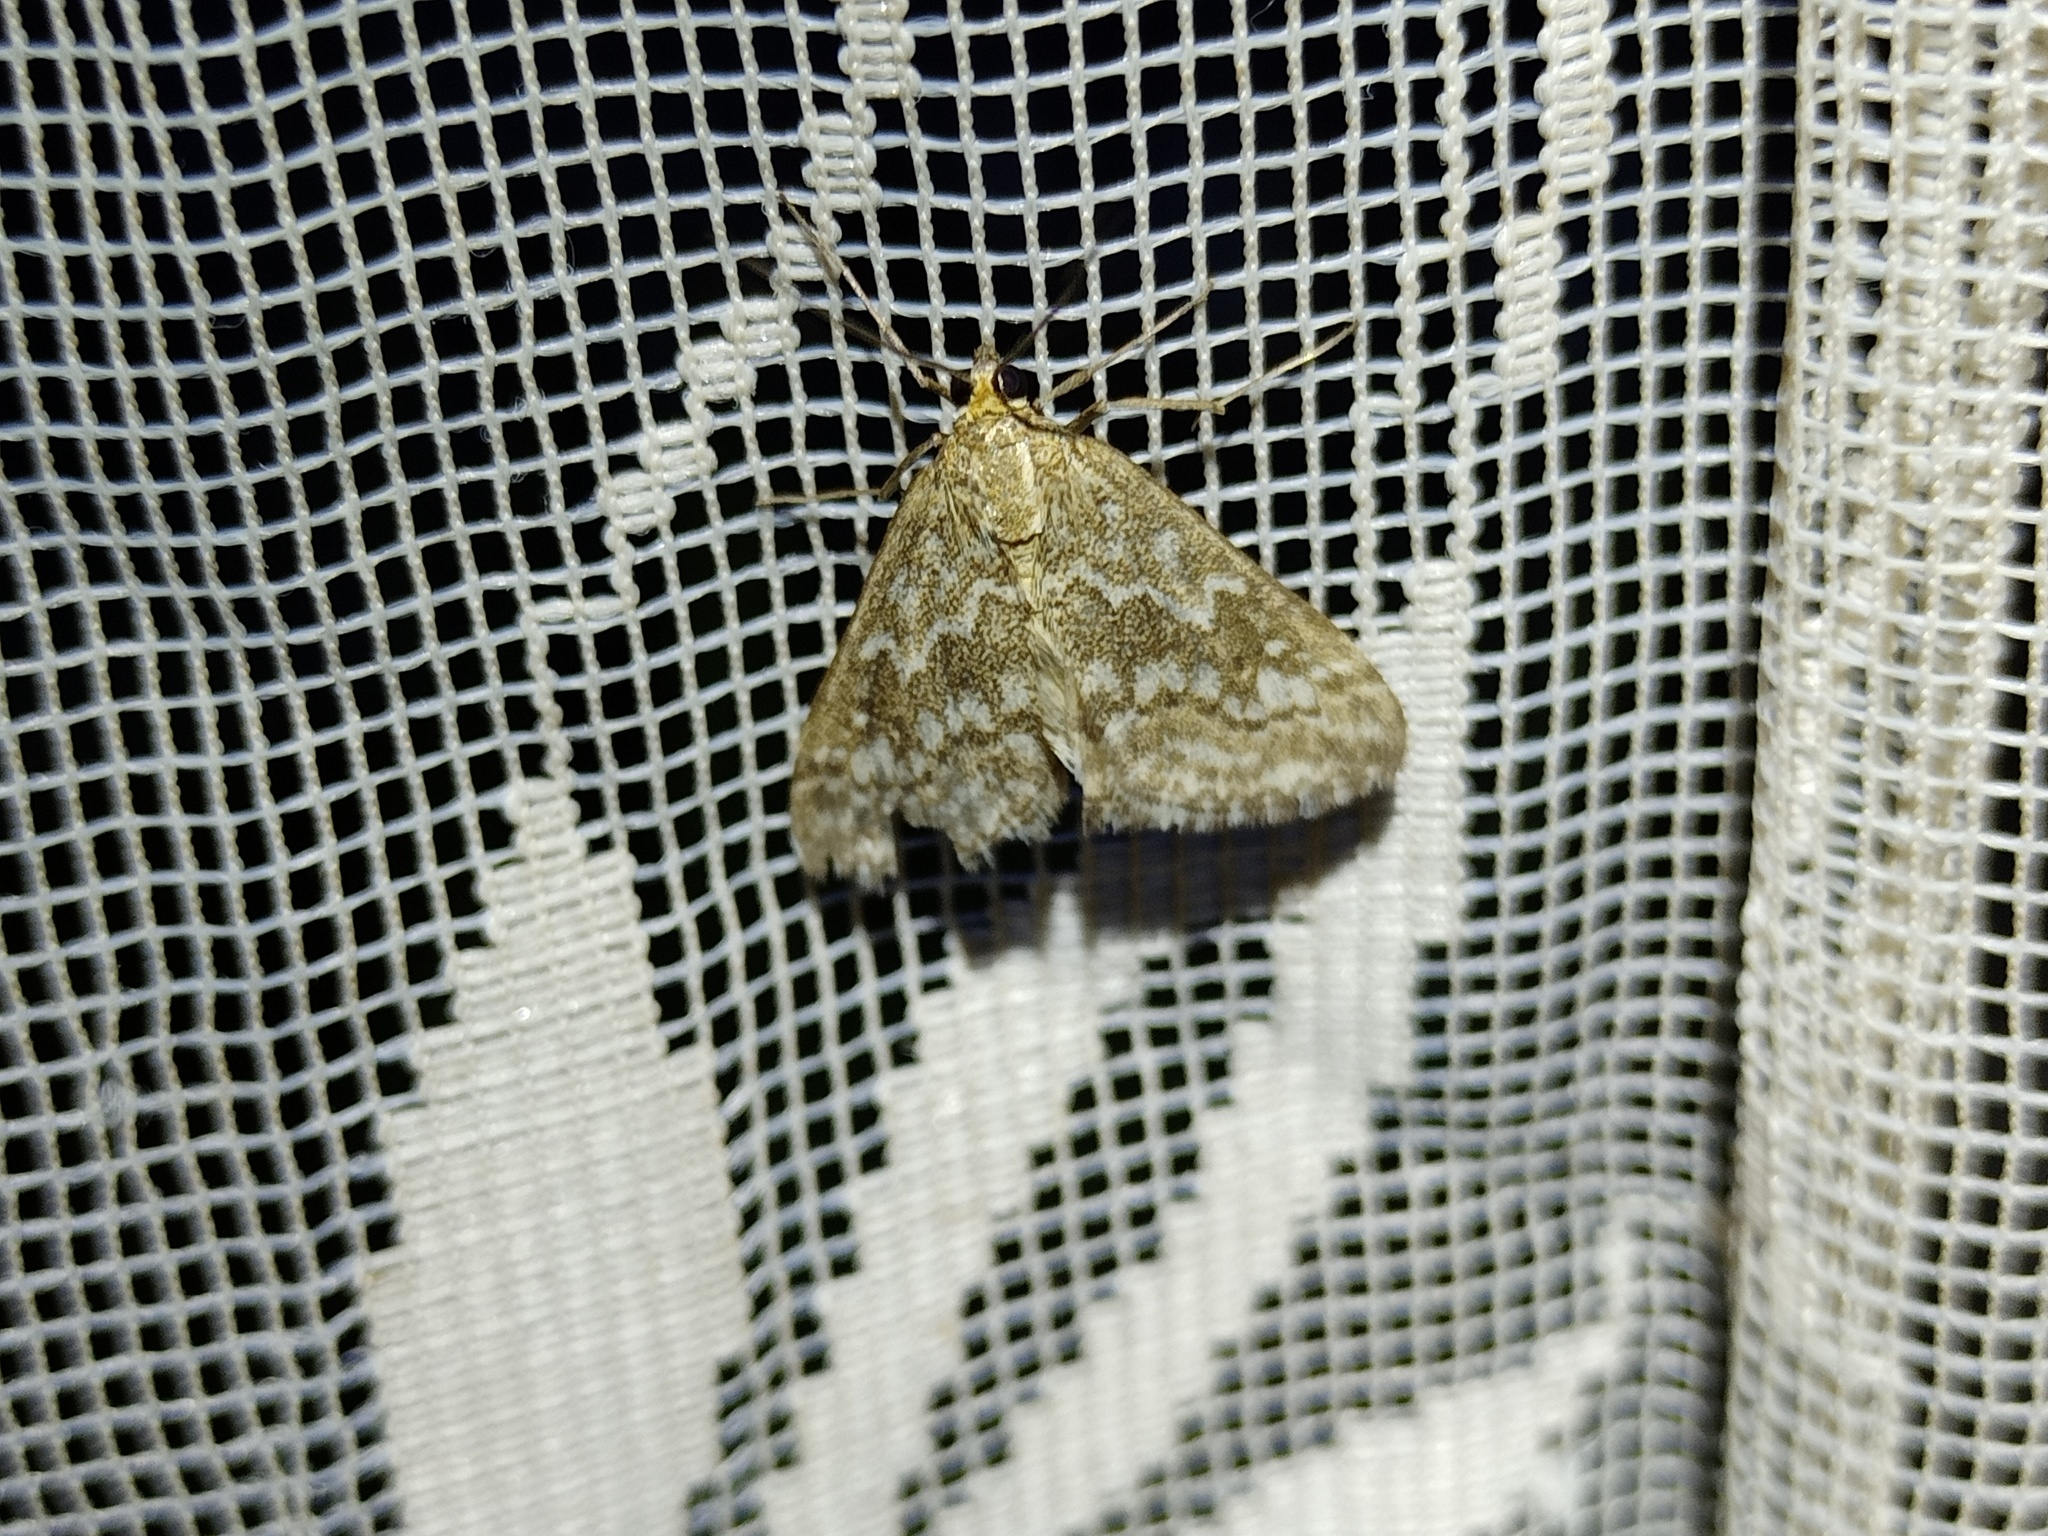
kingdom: Animalia
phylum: Arthropoda
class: Insecta
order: Lepidoptera
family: Crambidae
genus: Evergestis
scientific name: Evergestis frumentalis
